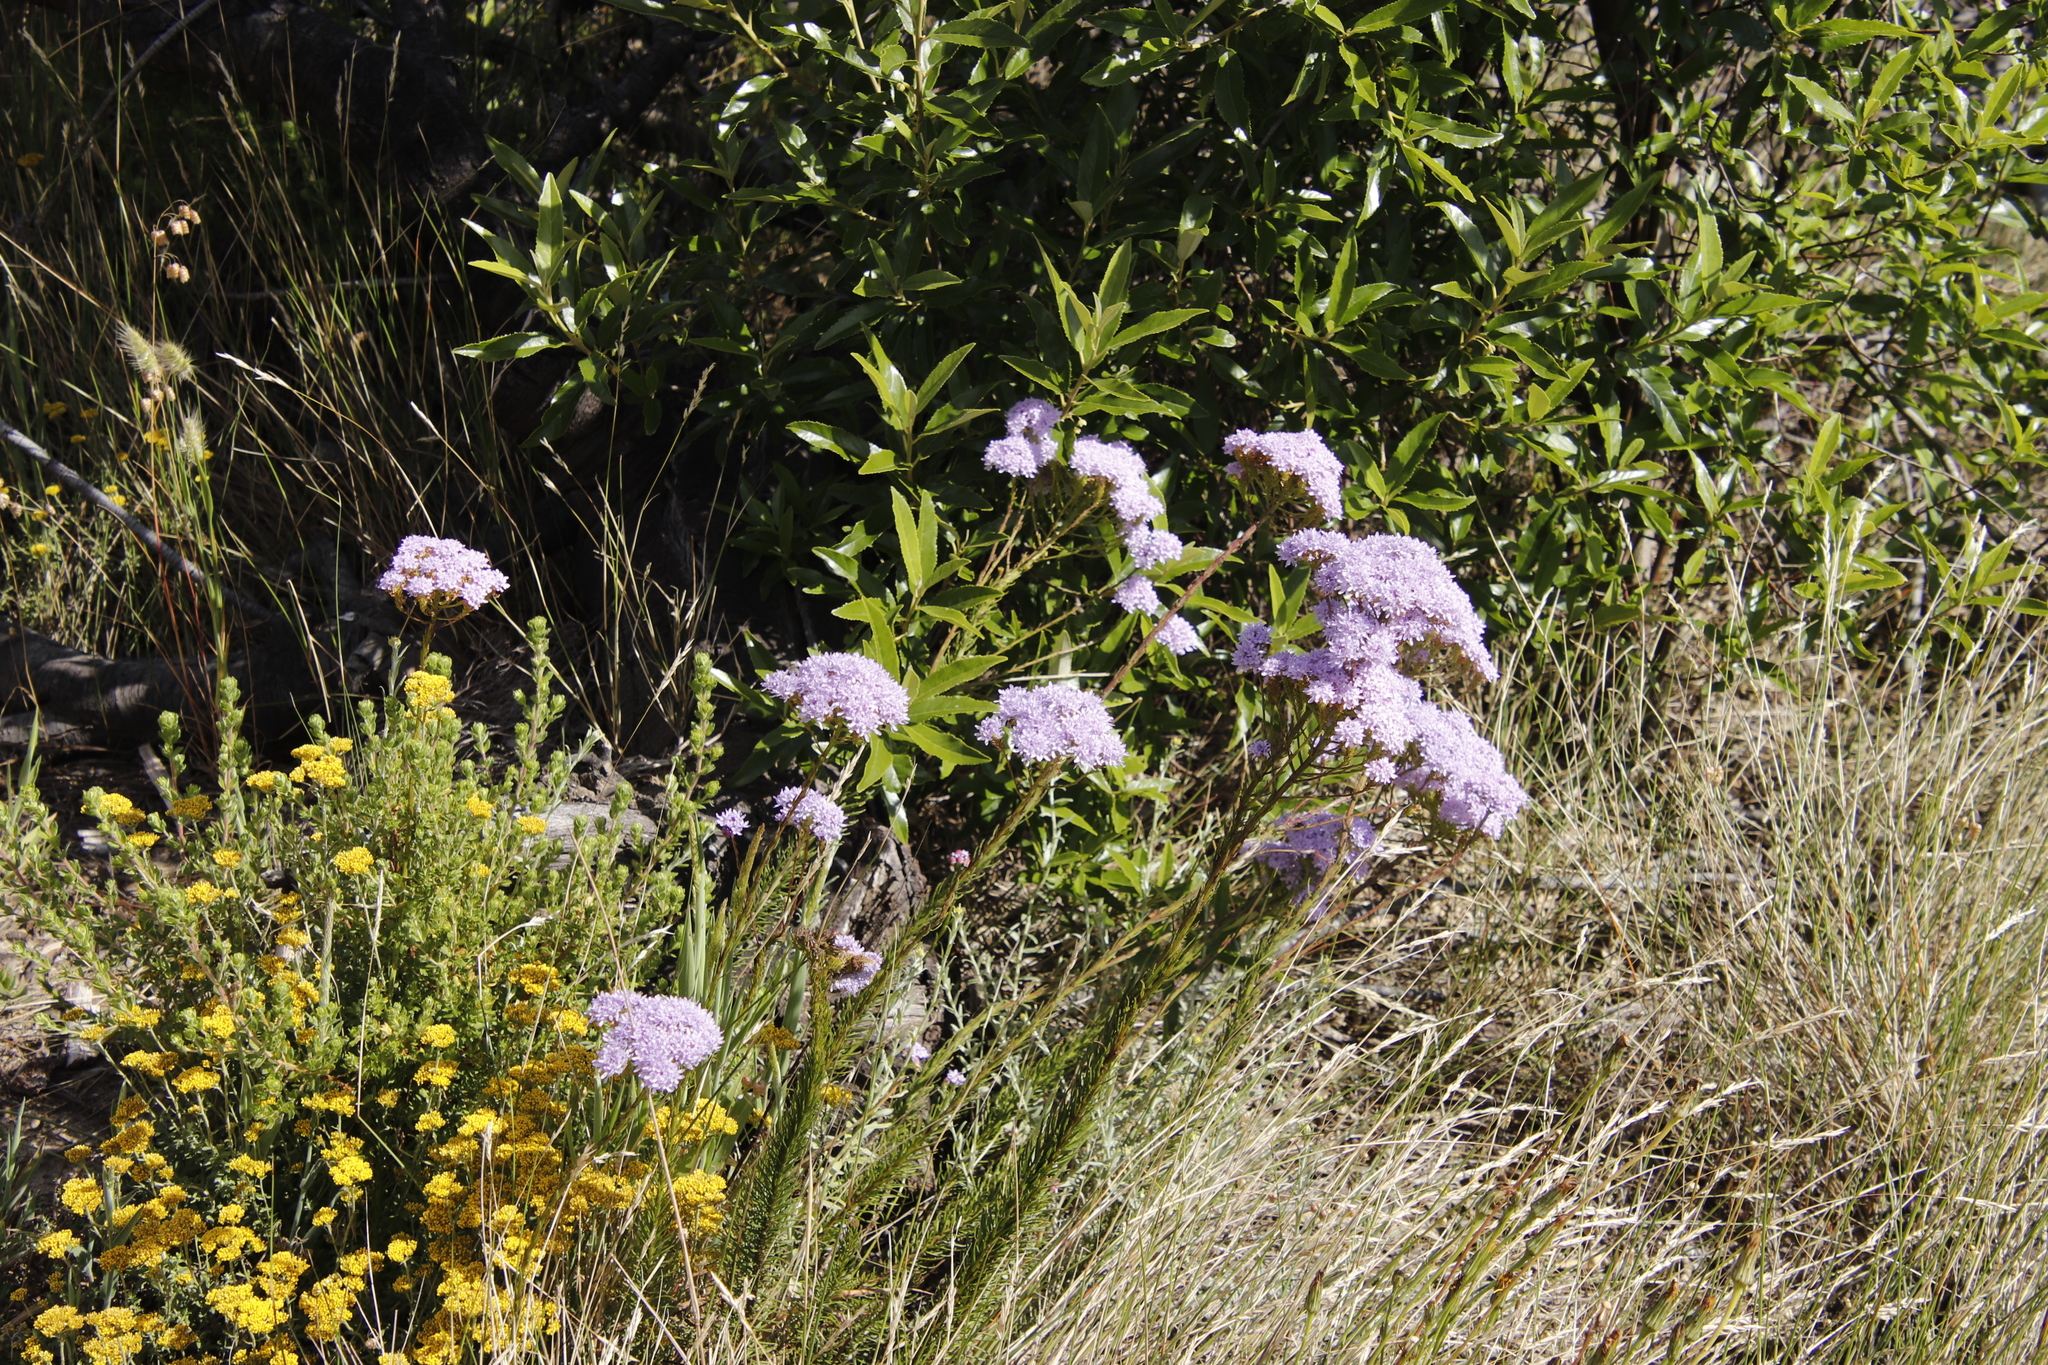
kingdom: Plantae
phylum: Tracheophyta
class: Magnoliopsida
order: Lamiales
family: Scrophulariaceae
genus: Pseudoselago
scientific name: Pseudoselago spuria
